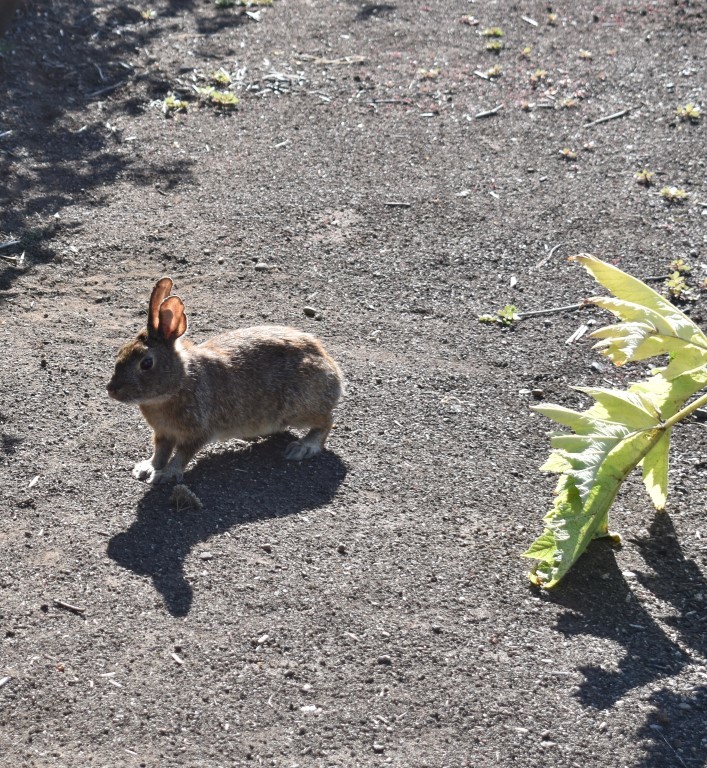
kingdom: Animalia
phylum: Chordata
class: Mammalia
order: Lagomorpha
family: Leporidae
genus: Sylvilagus
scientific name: Sylvilagus
